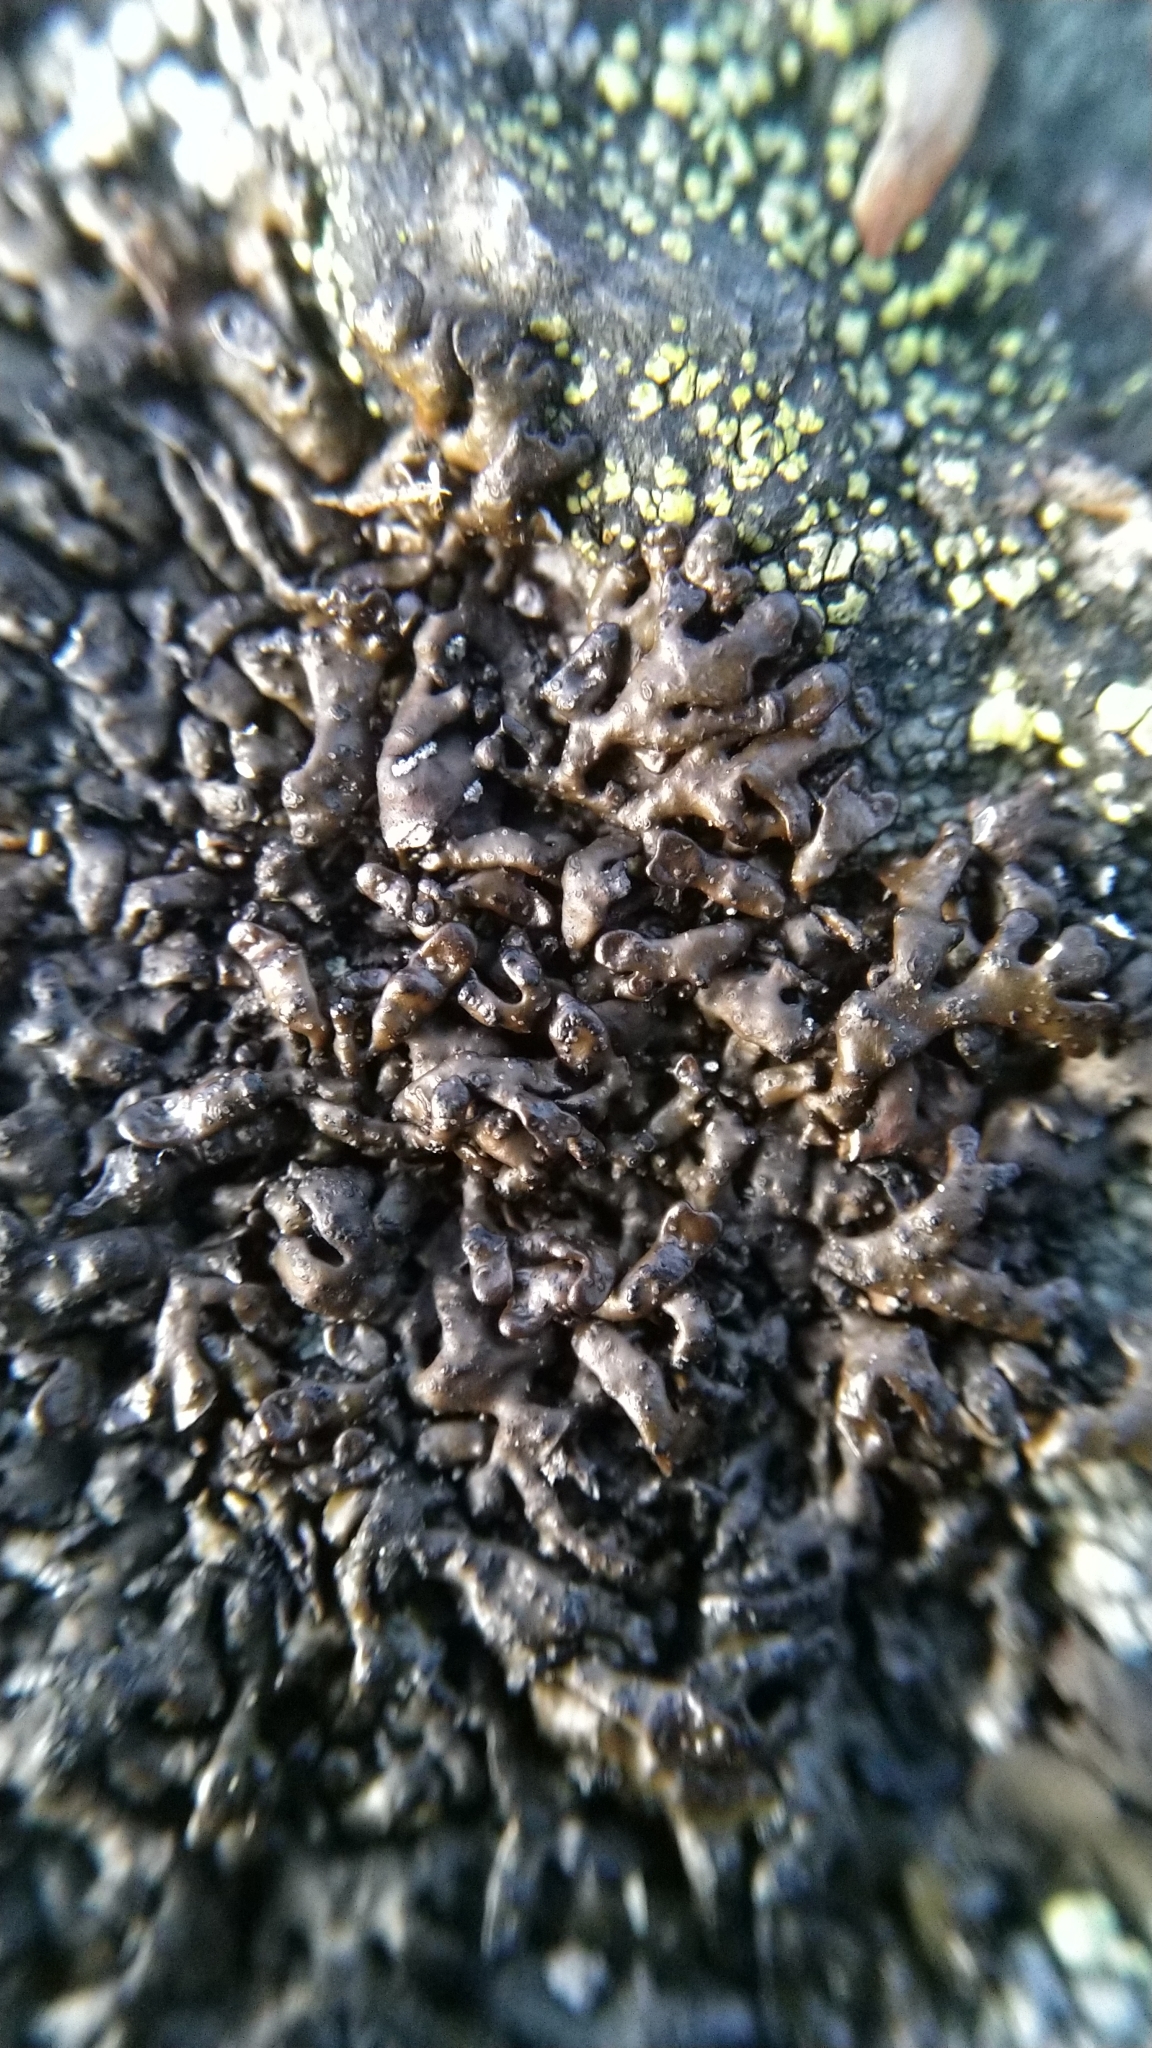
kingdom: Fungi
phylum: Ascomycota
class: Lecanoromycetes
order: Lecanorales
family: Parmeliaceae
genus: Melanelia
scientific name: Melanelia stygia
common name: Alpine camouflage lichen
